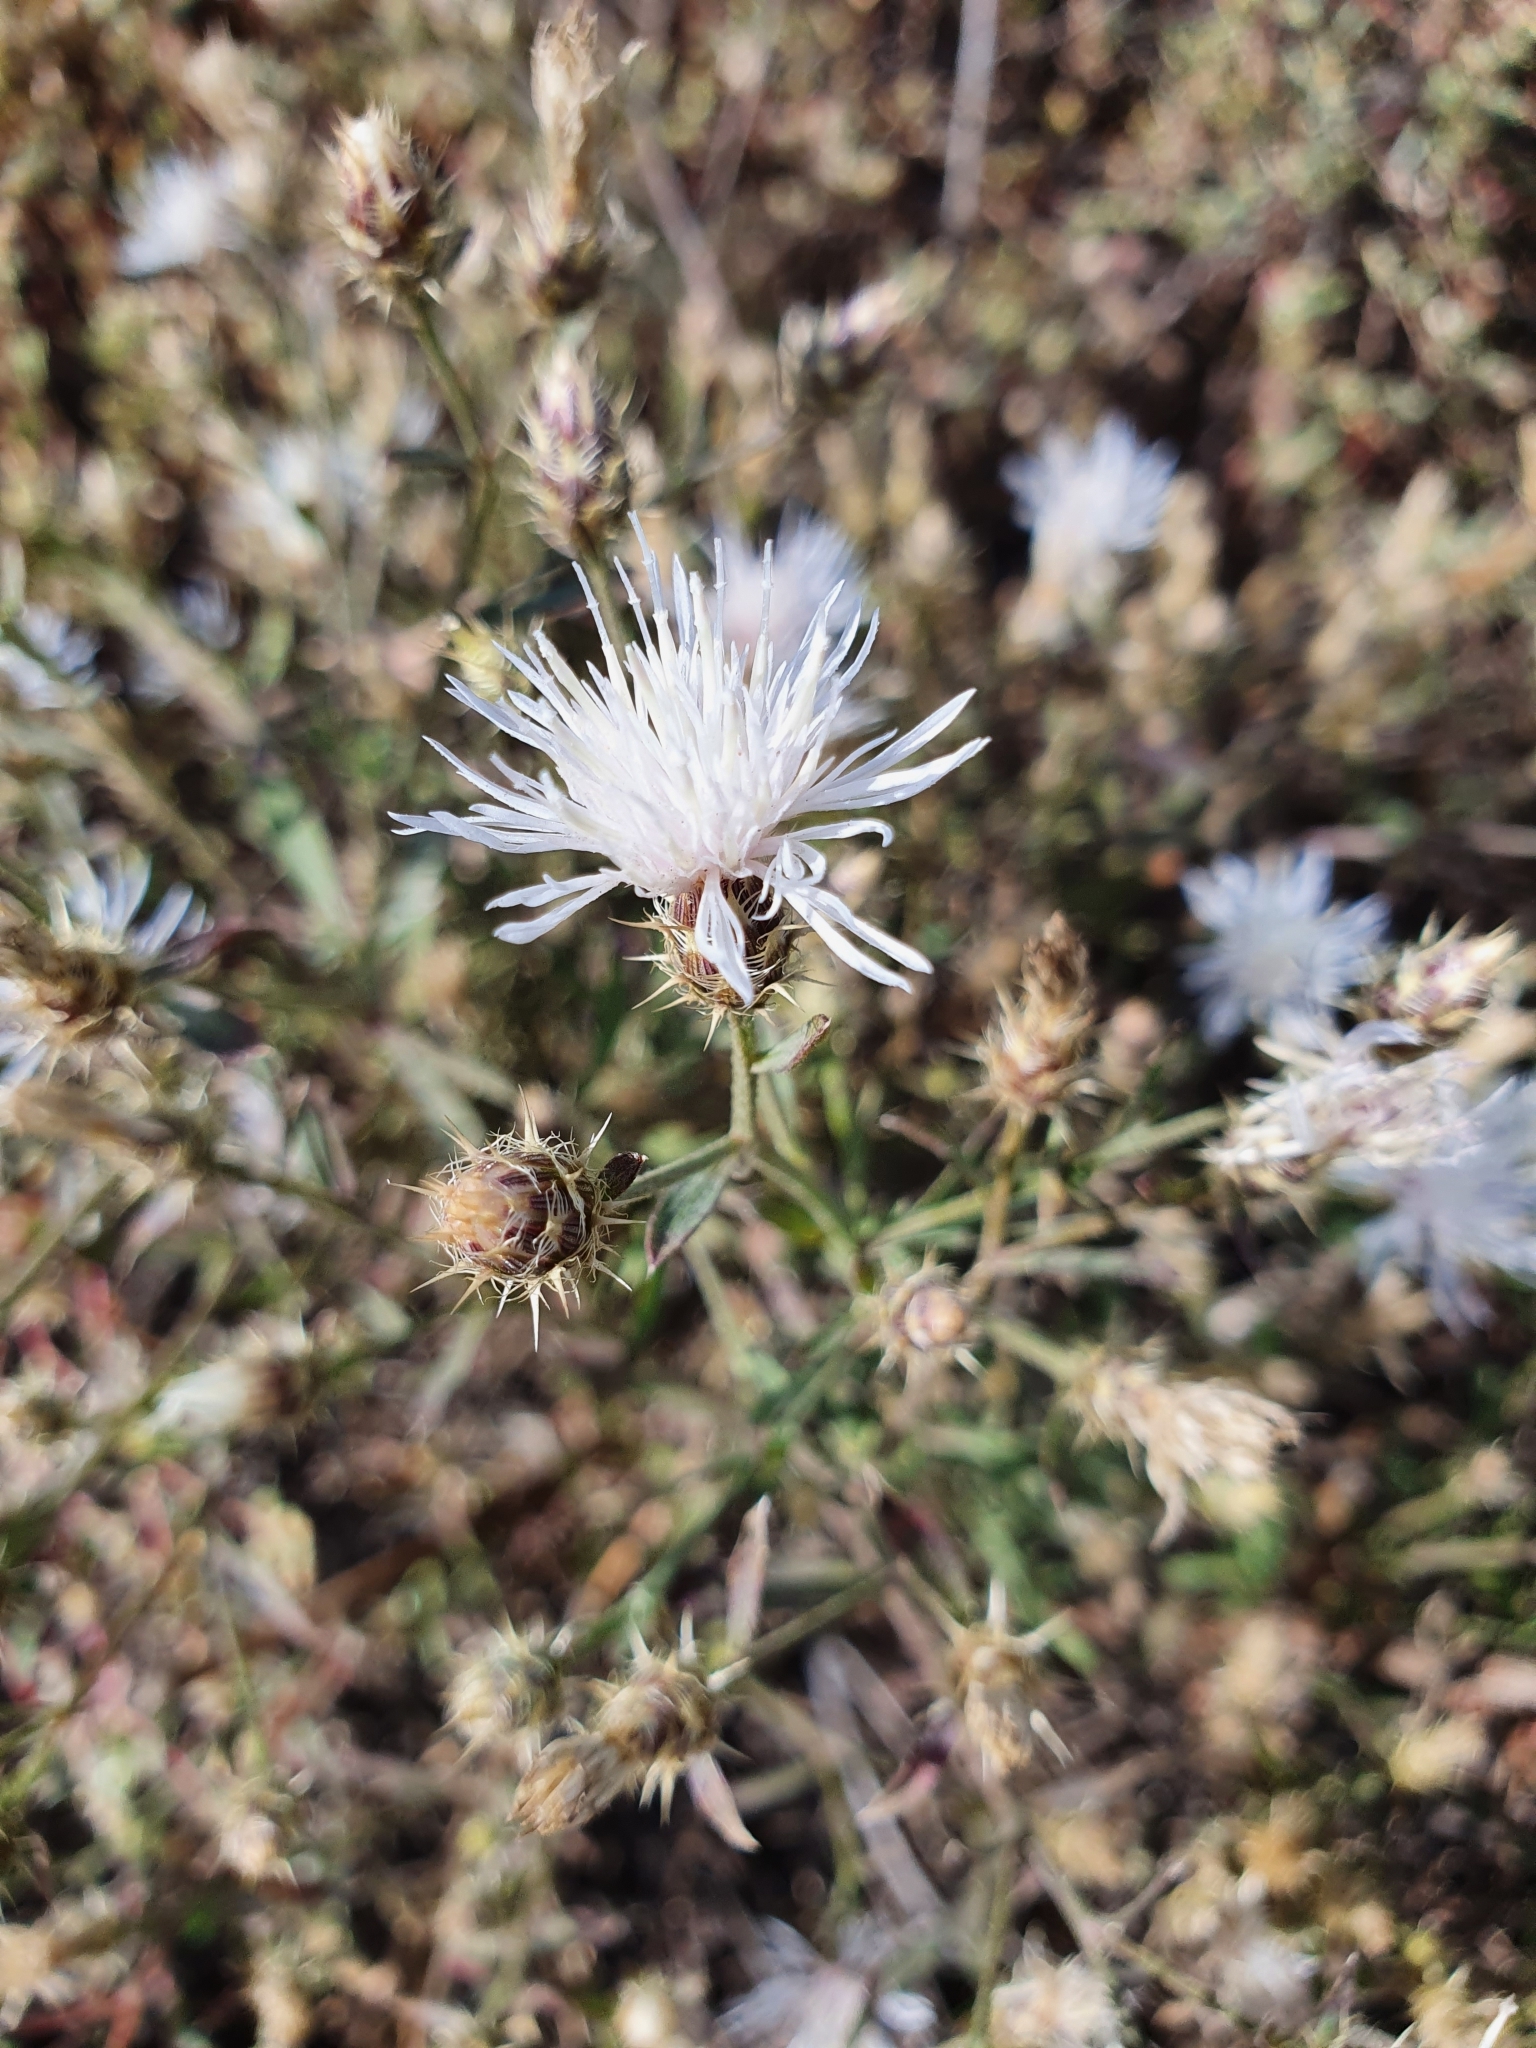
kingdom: Plantae
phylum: Tracheophyta
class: Magnoliopsida
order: Asterales
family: Asteraceae
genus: Centaurea
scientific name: Centaurea diffusa
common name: Diffuse knapweed
